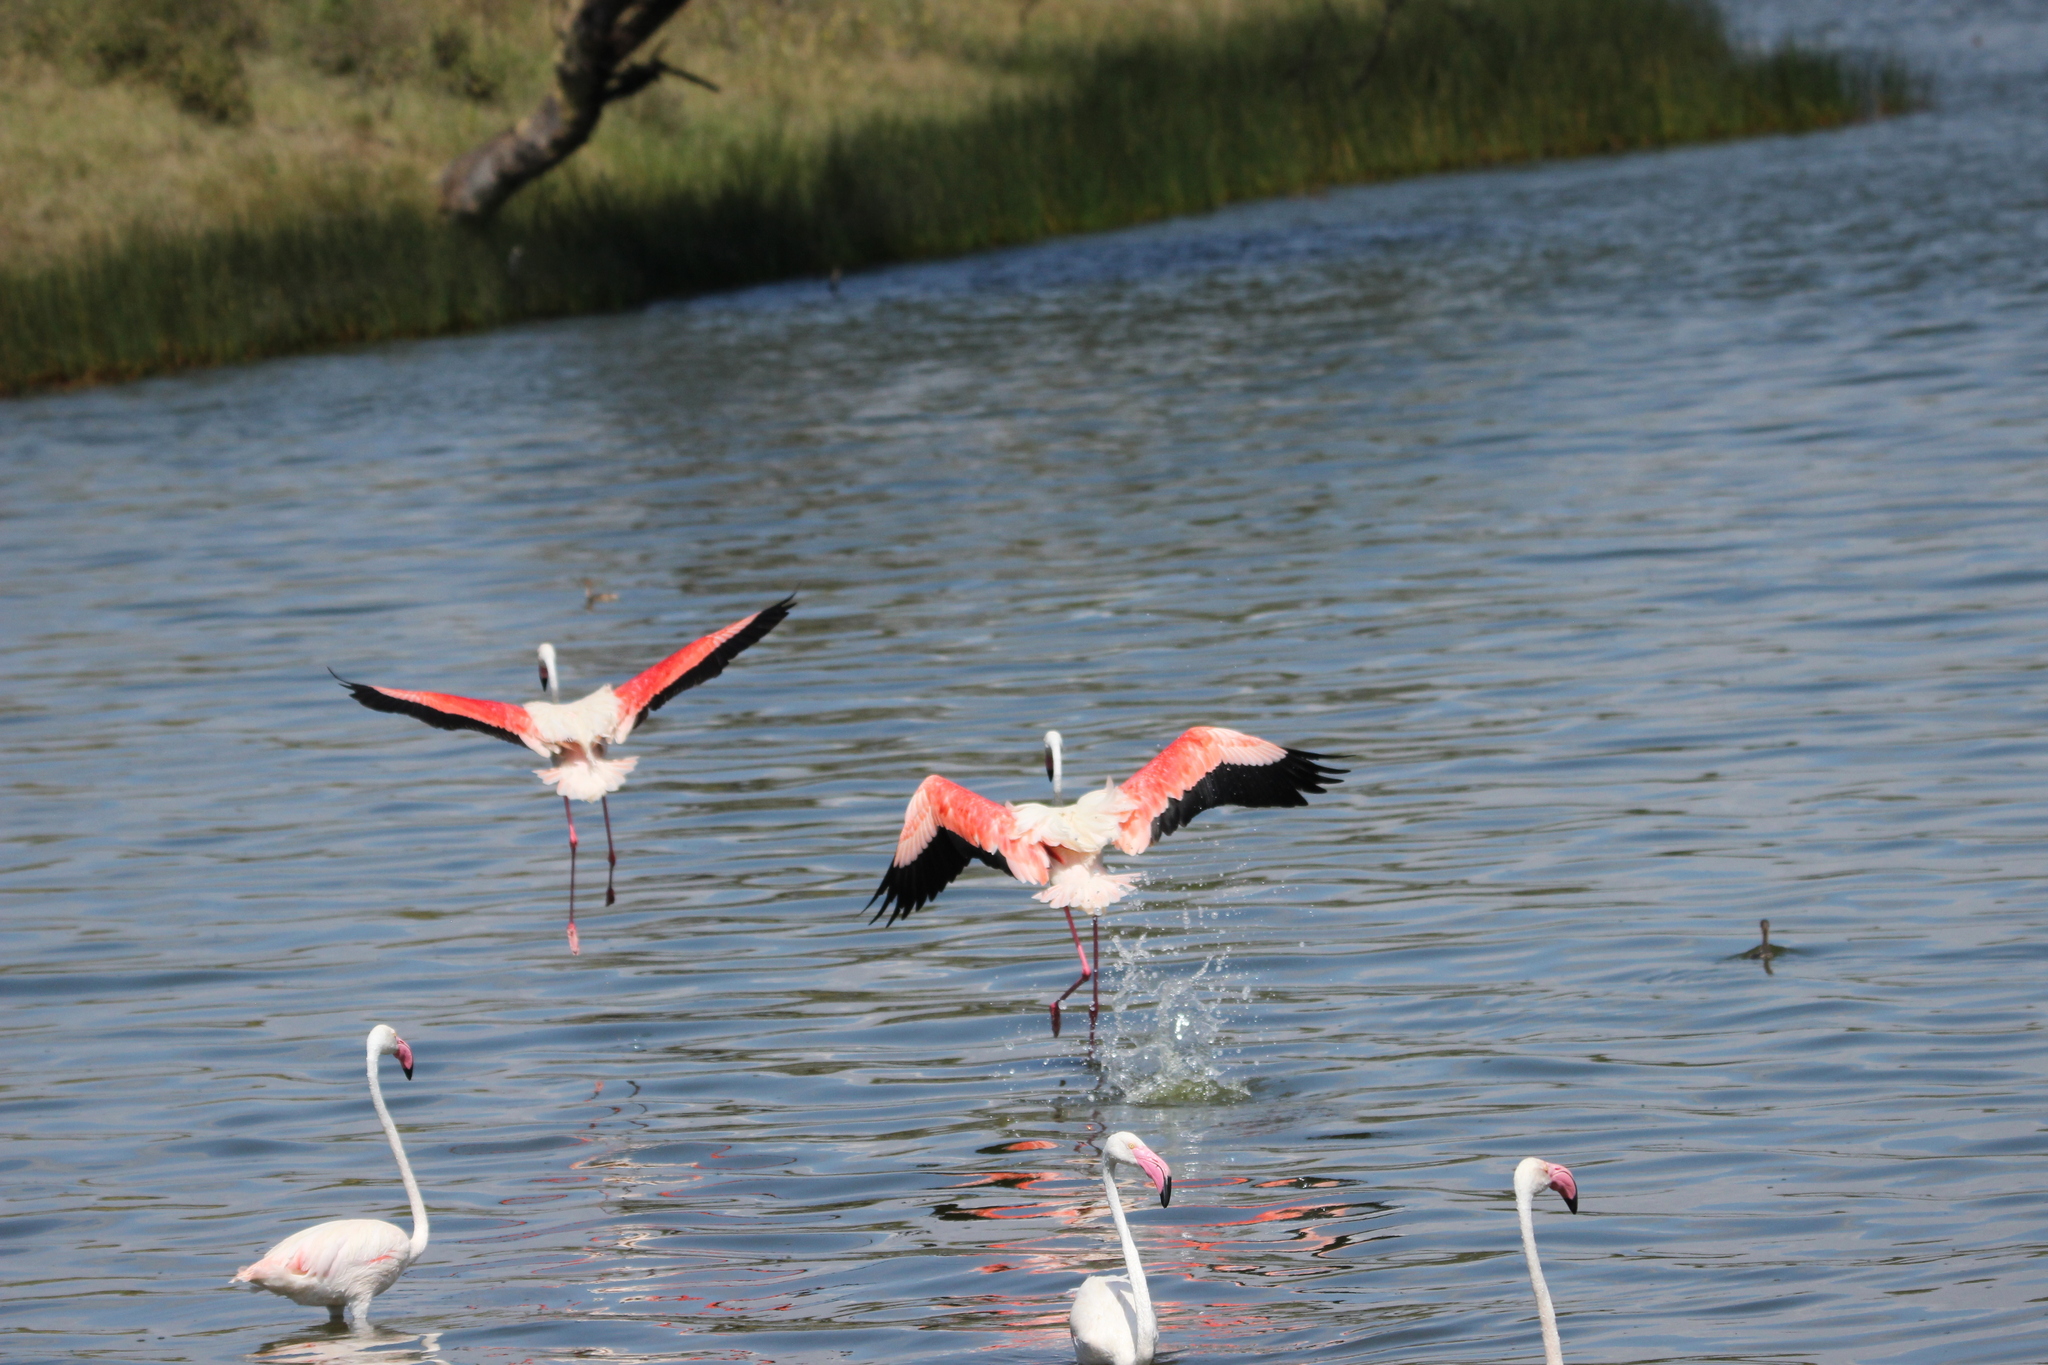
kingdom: Animalia
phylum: Chordata
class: Aves
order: Phoenicopteriformes
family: Phoenicopteridae
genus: Phoenicopterus
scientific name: Phoenicopterus roseus
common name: Greater flamingo
